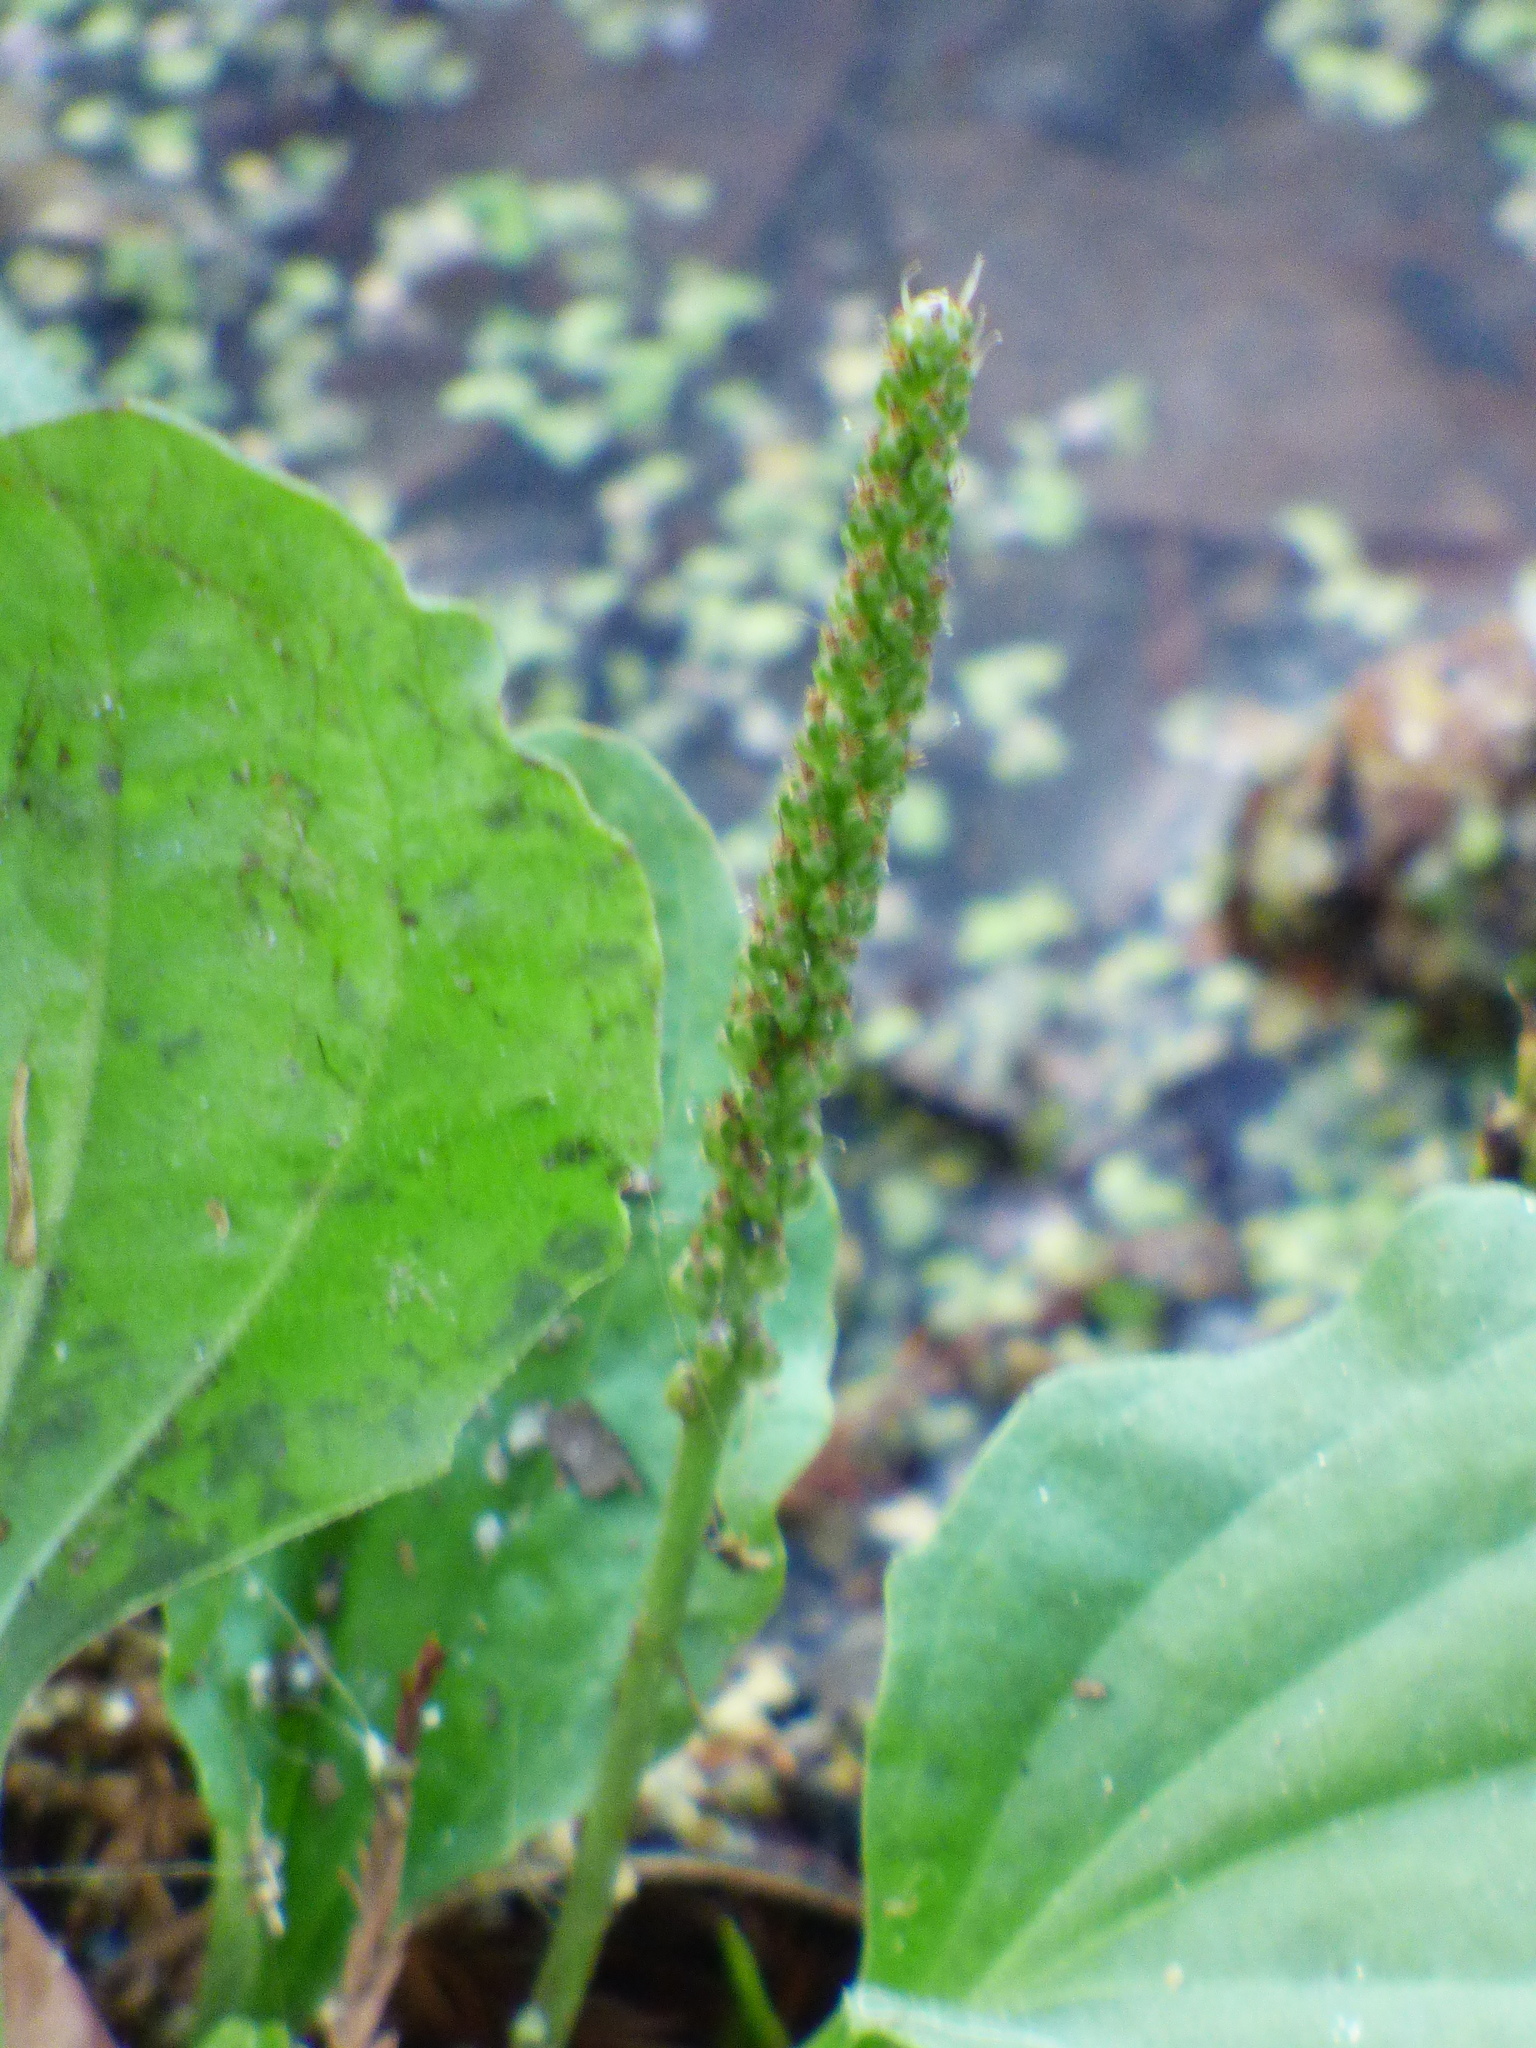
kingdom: Plantae
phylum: Tracheophyta
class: Magnoliopsida
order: Lamiales
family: Plantaginaceae
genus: Plantago
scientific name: Plantago major
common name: Common plantain
